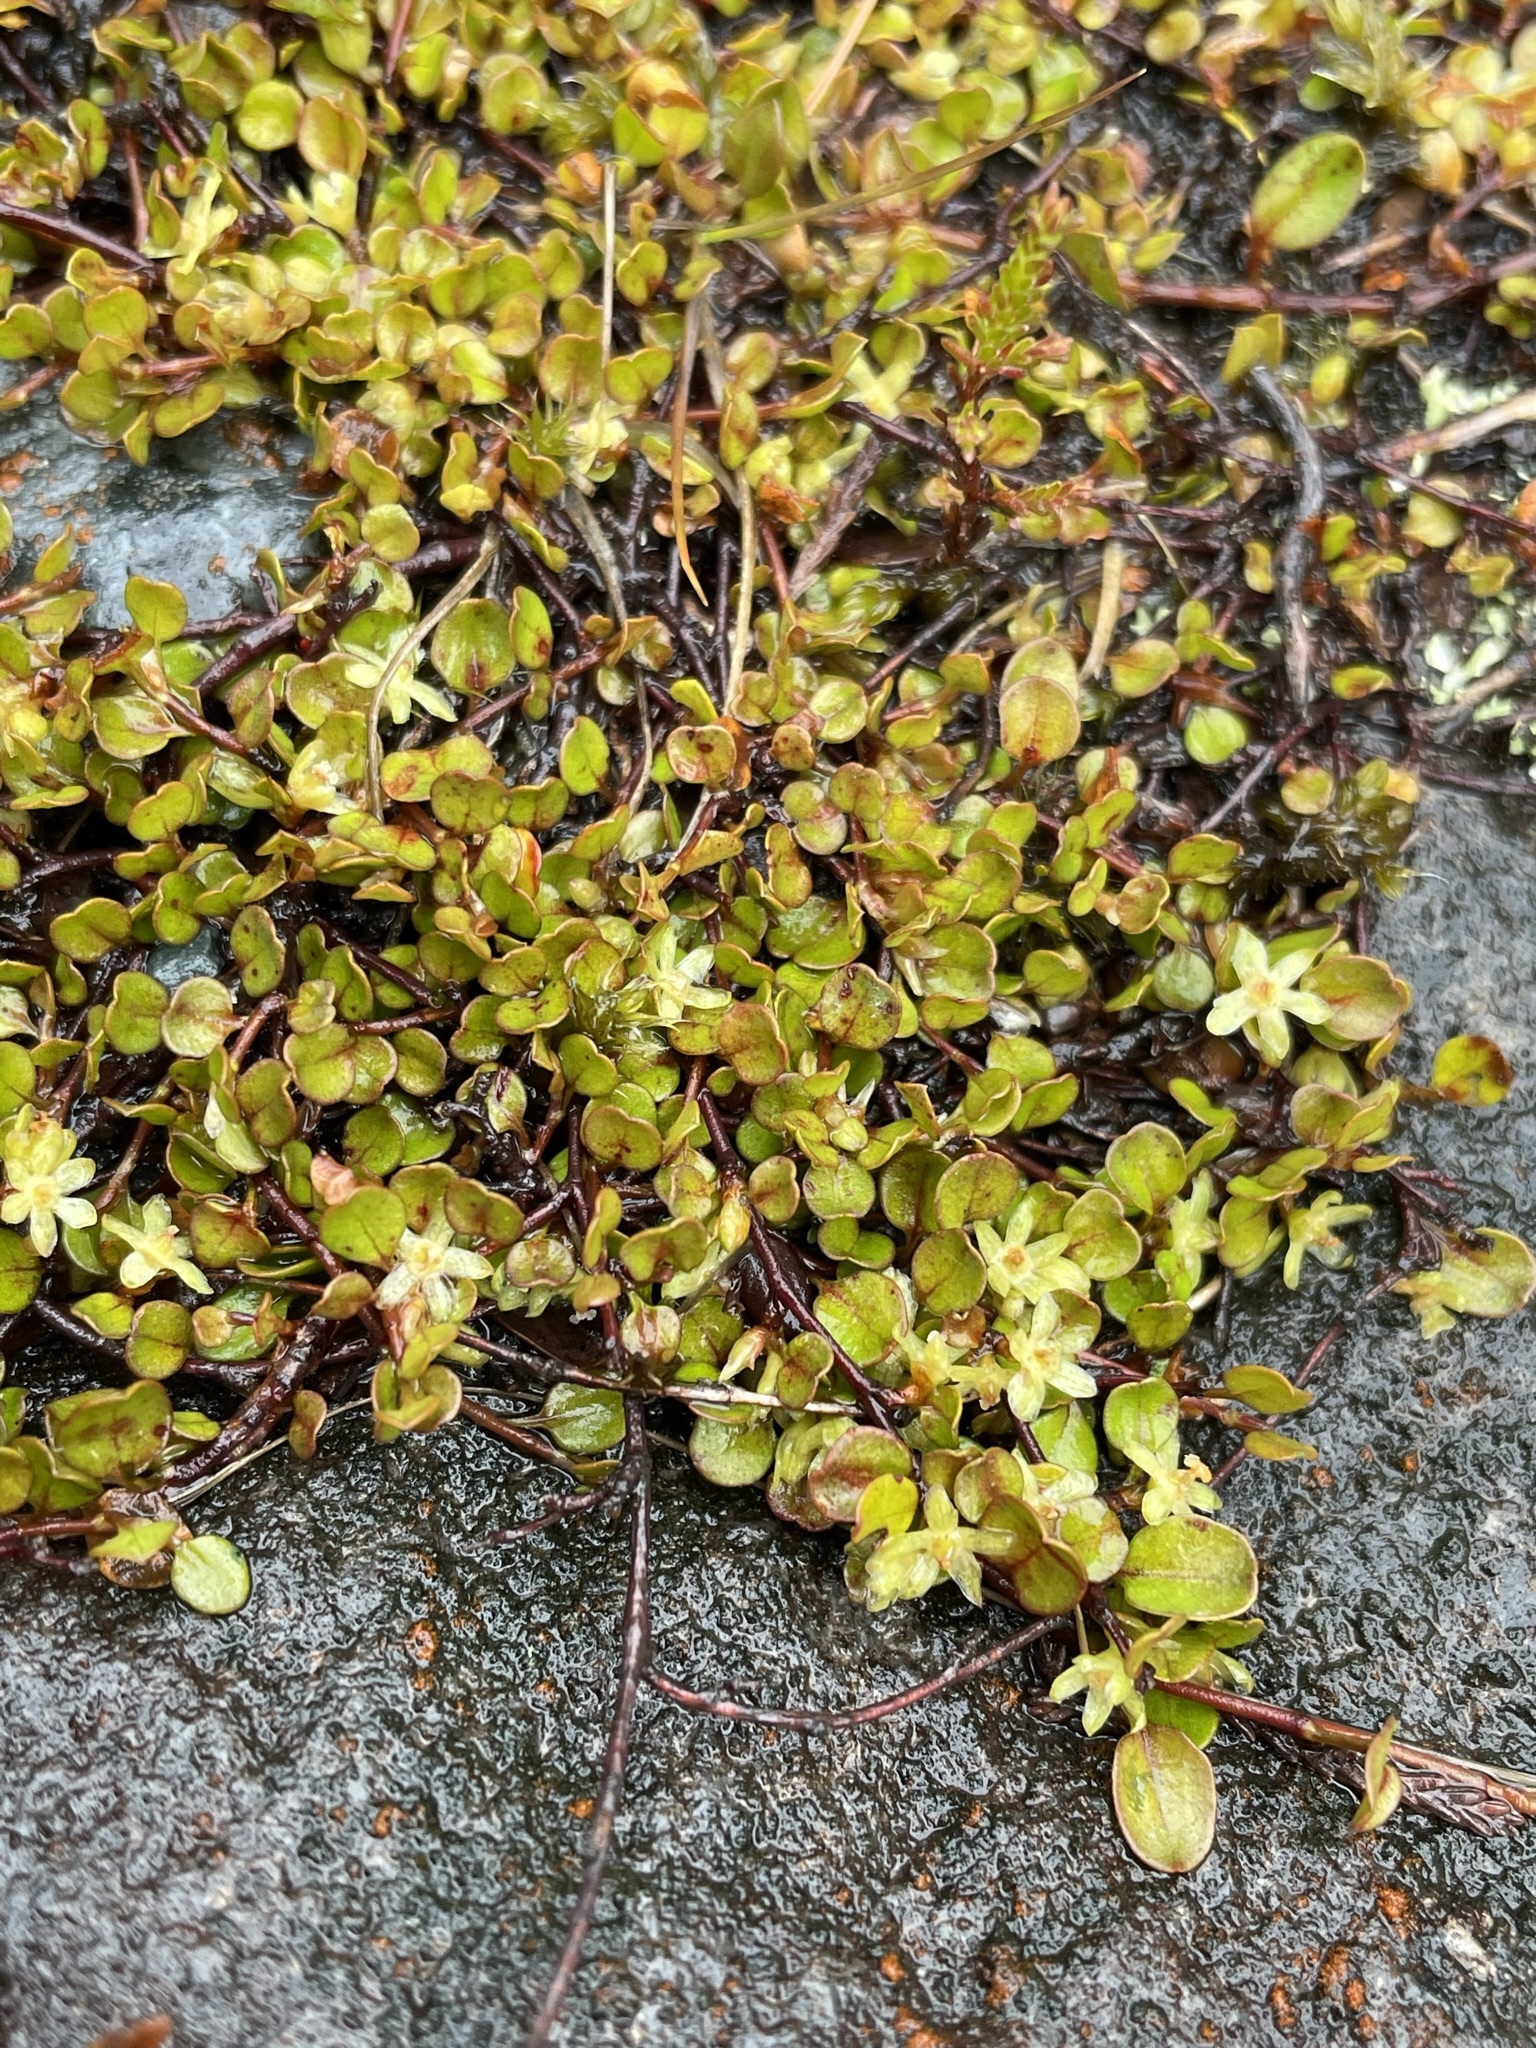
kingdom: Plantae
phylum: Tracheophyta
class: Magnoliopsida
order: Caryophyllales
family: Polygonaceae
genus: Muehlenbeckia
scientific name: Muehlenbeckia axillaris
